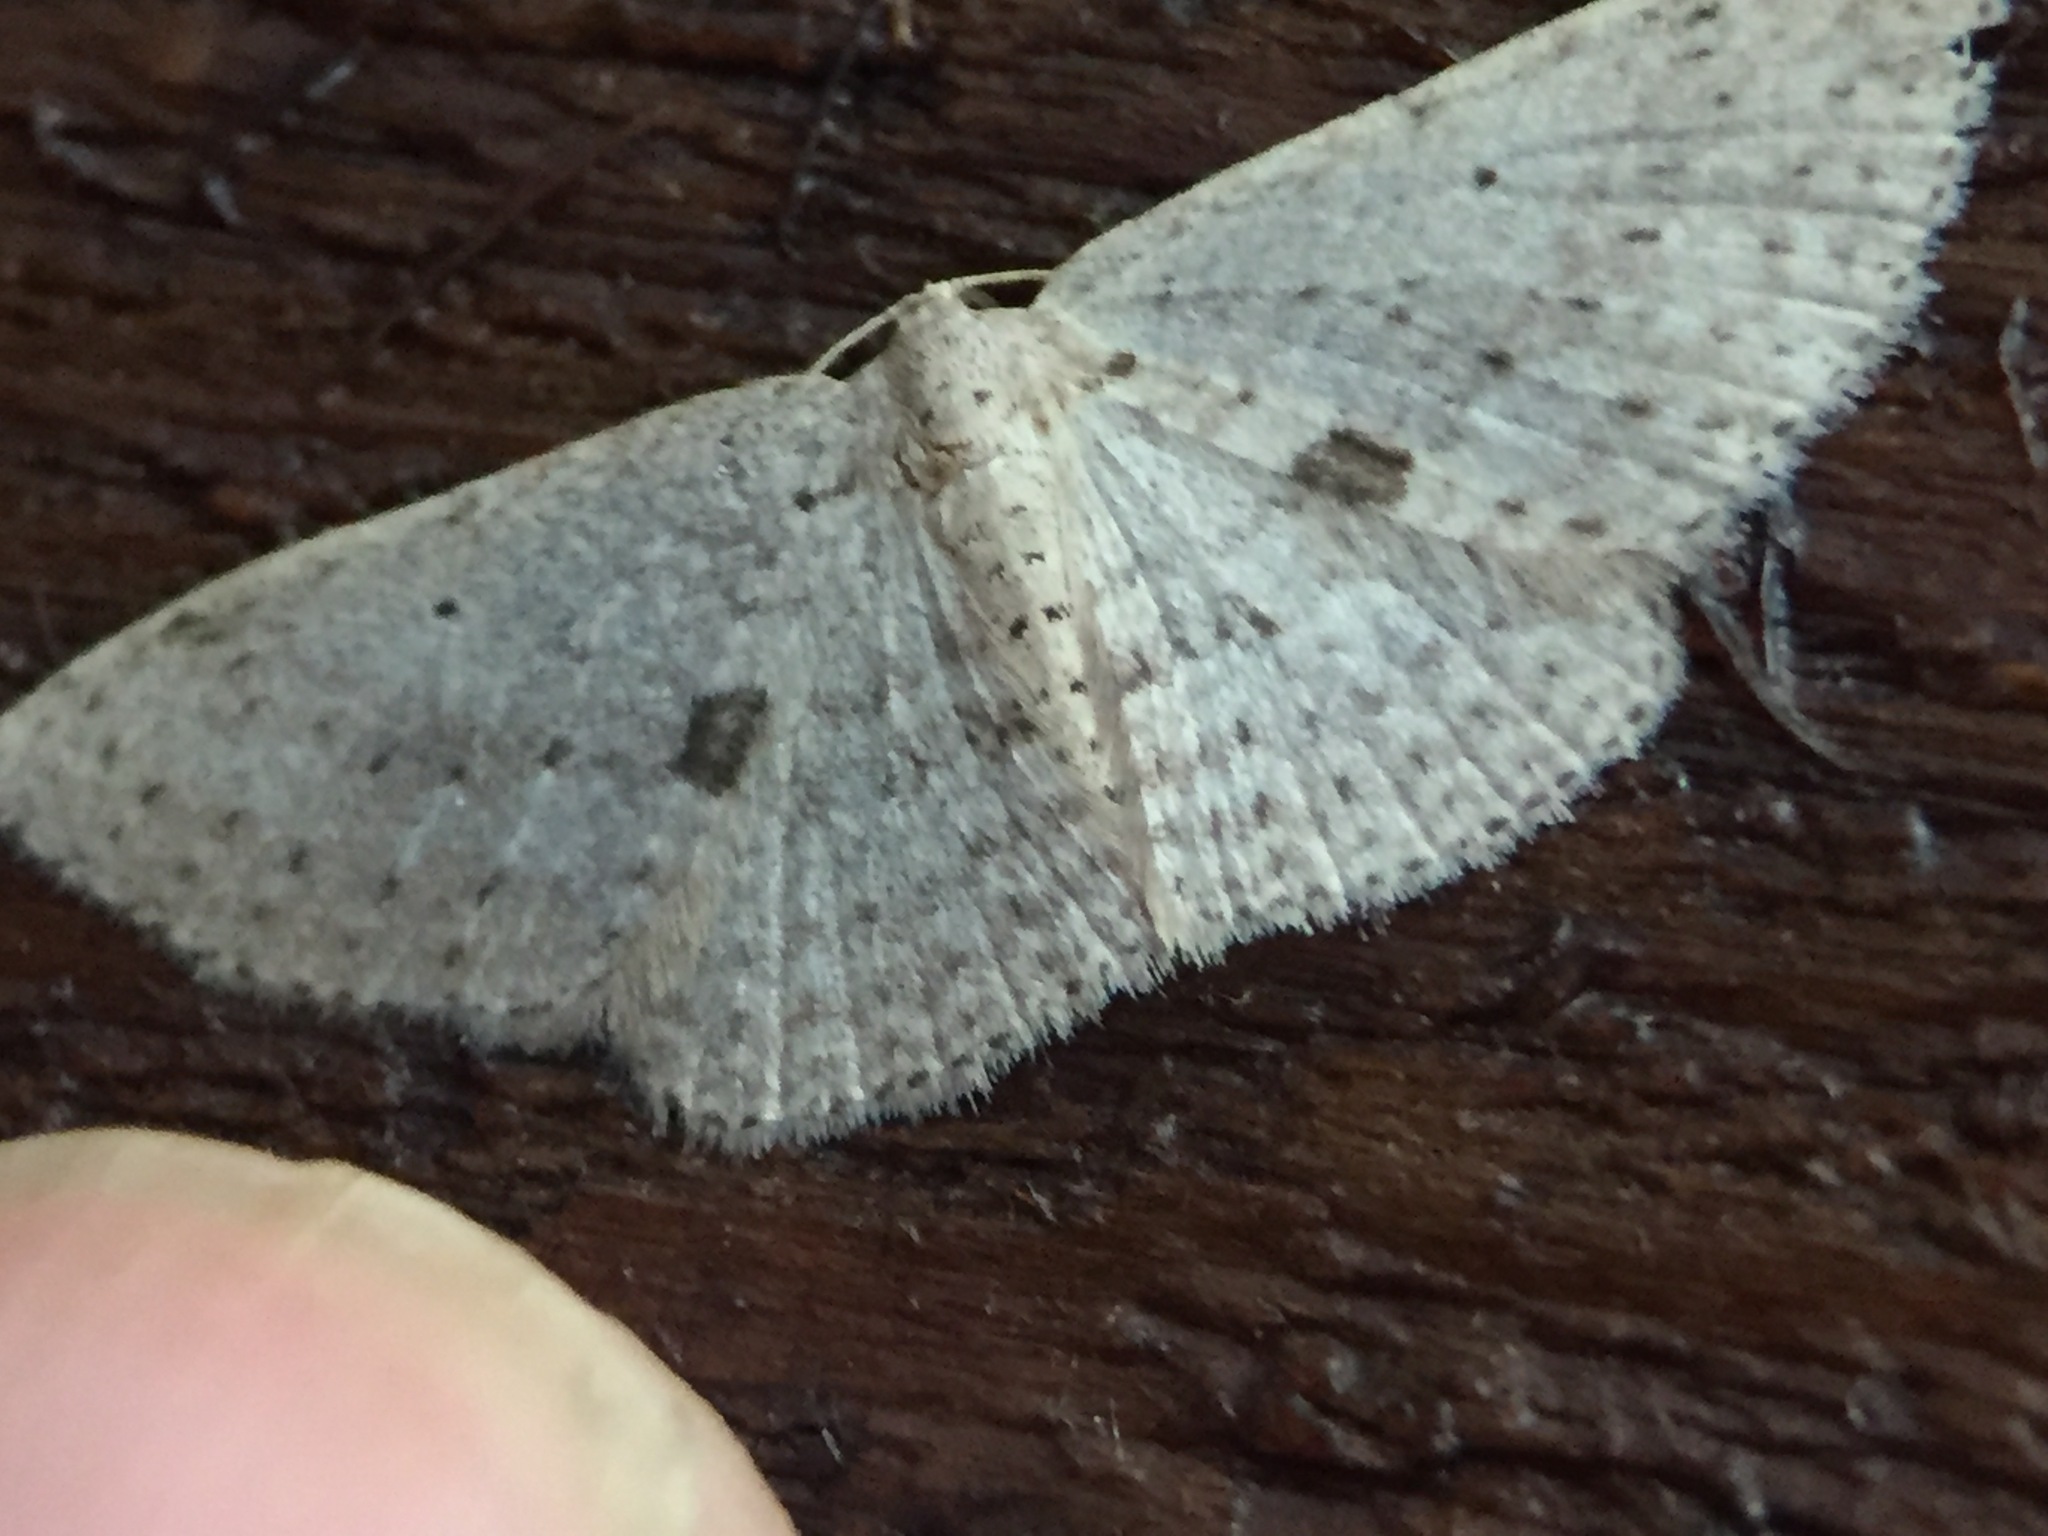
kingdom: Animalia
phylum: Arthropoda
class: Insecta
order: Lepidoptera
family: Geometridae
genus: Poecilasthena
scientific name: Poecilasthena schistaria
